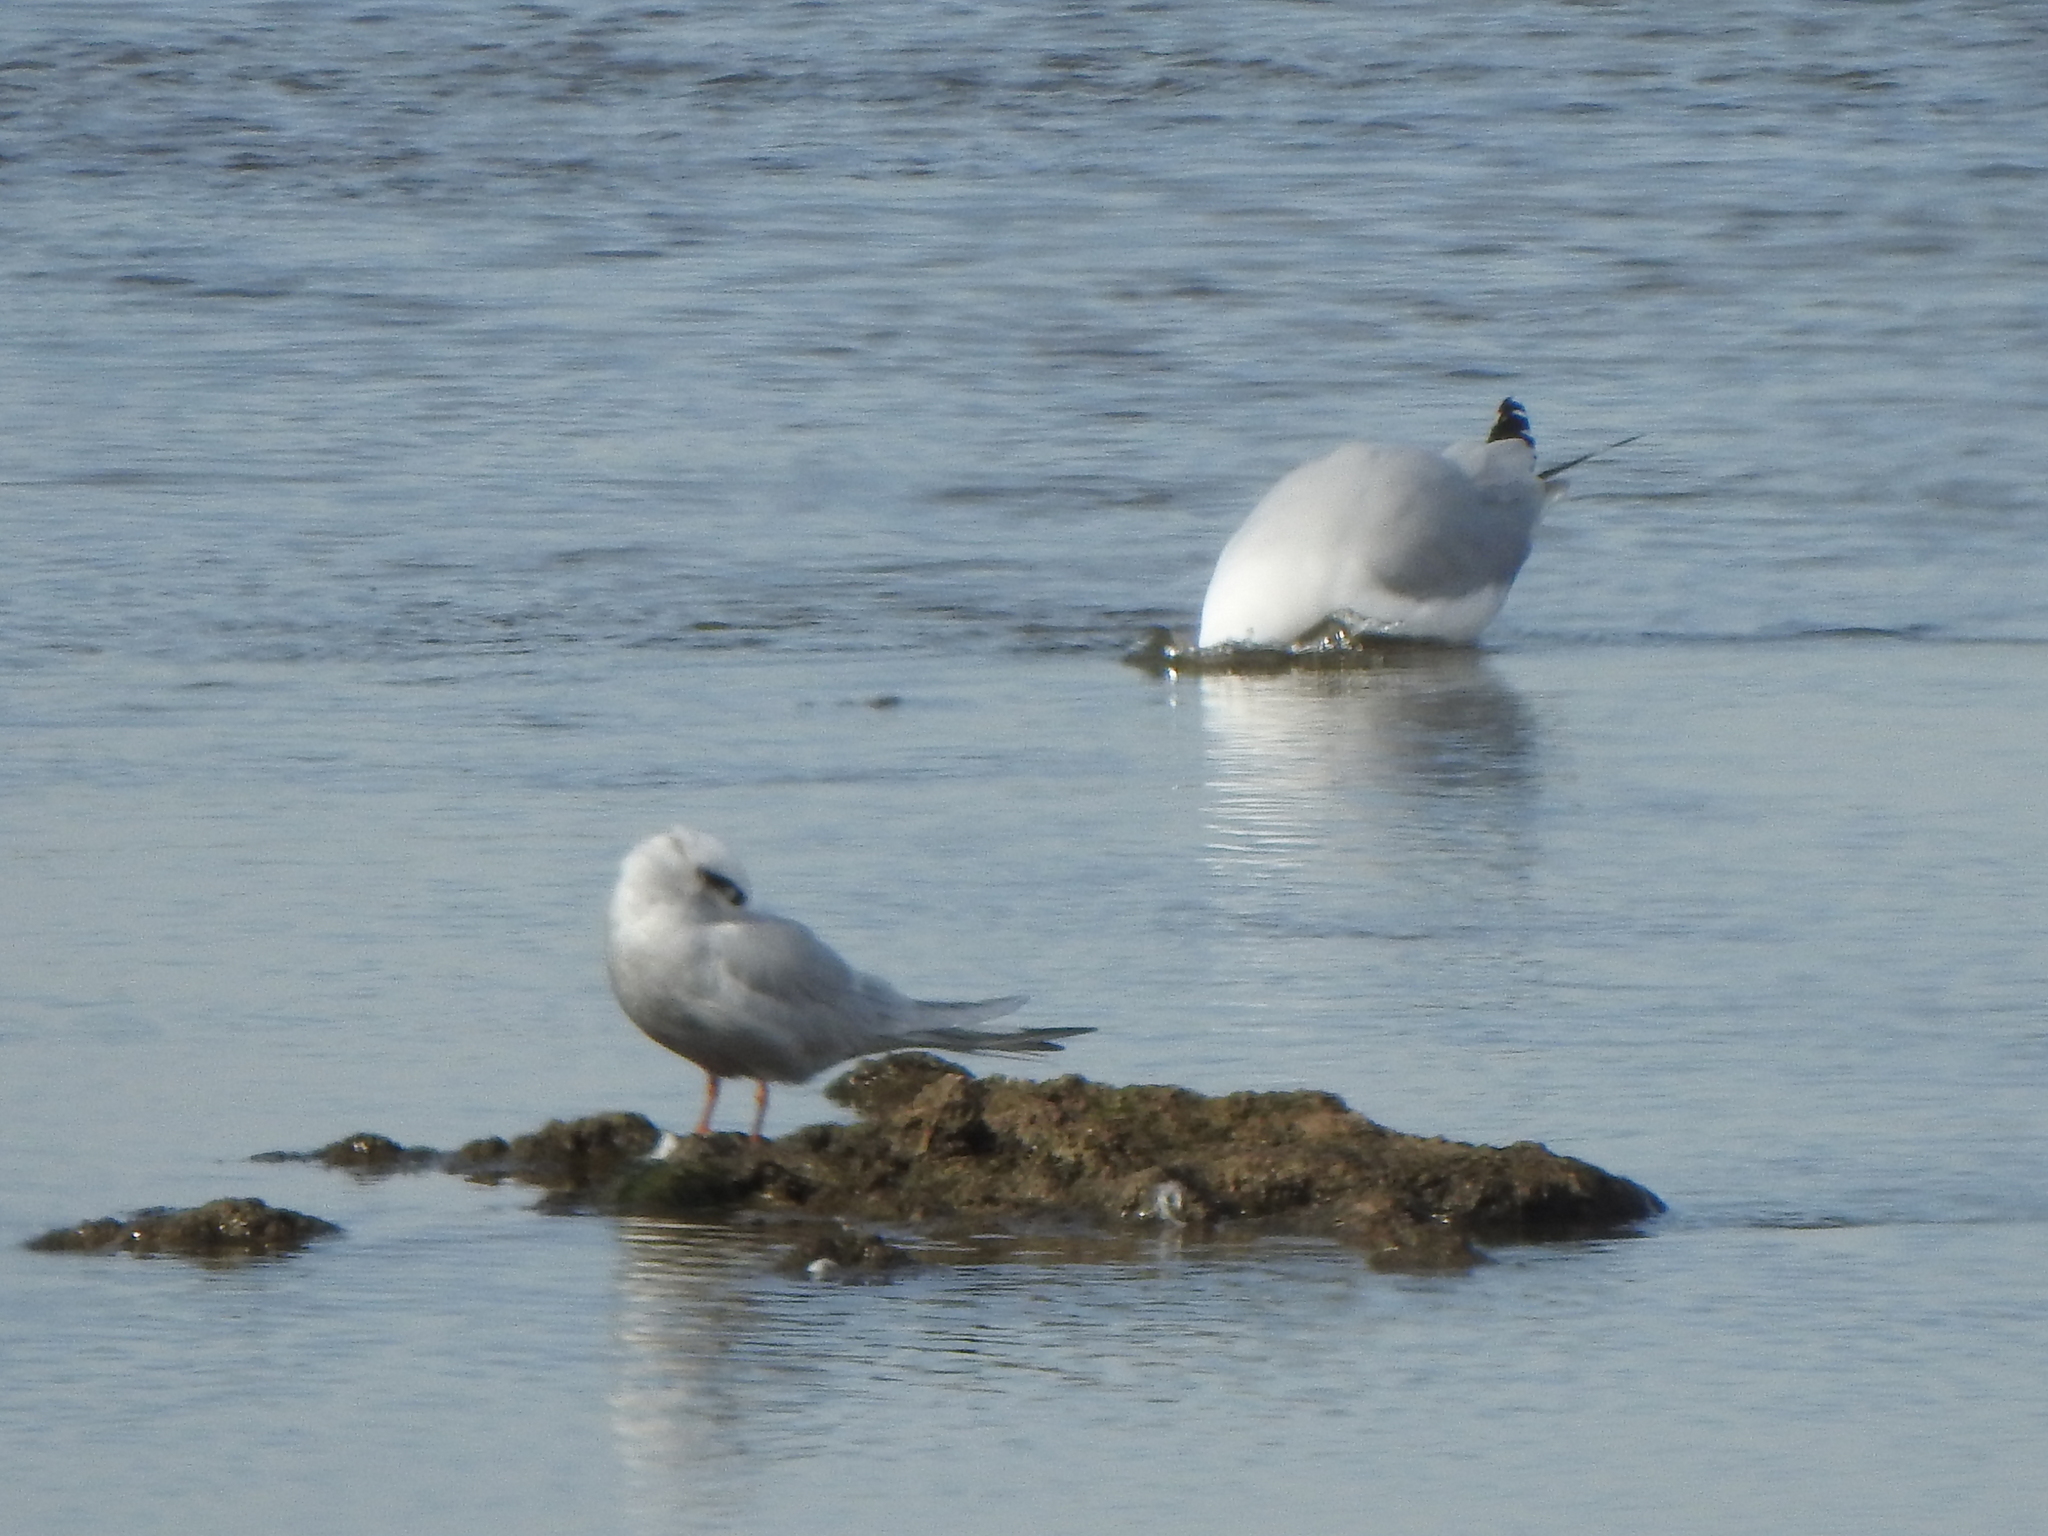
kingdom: Animalia
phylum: Chordata
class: Aves
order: Charadriiformes
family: Laridae
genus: Sterna
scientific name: Sterna trudeaui
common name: Snowy-crowned tern
